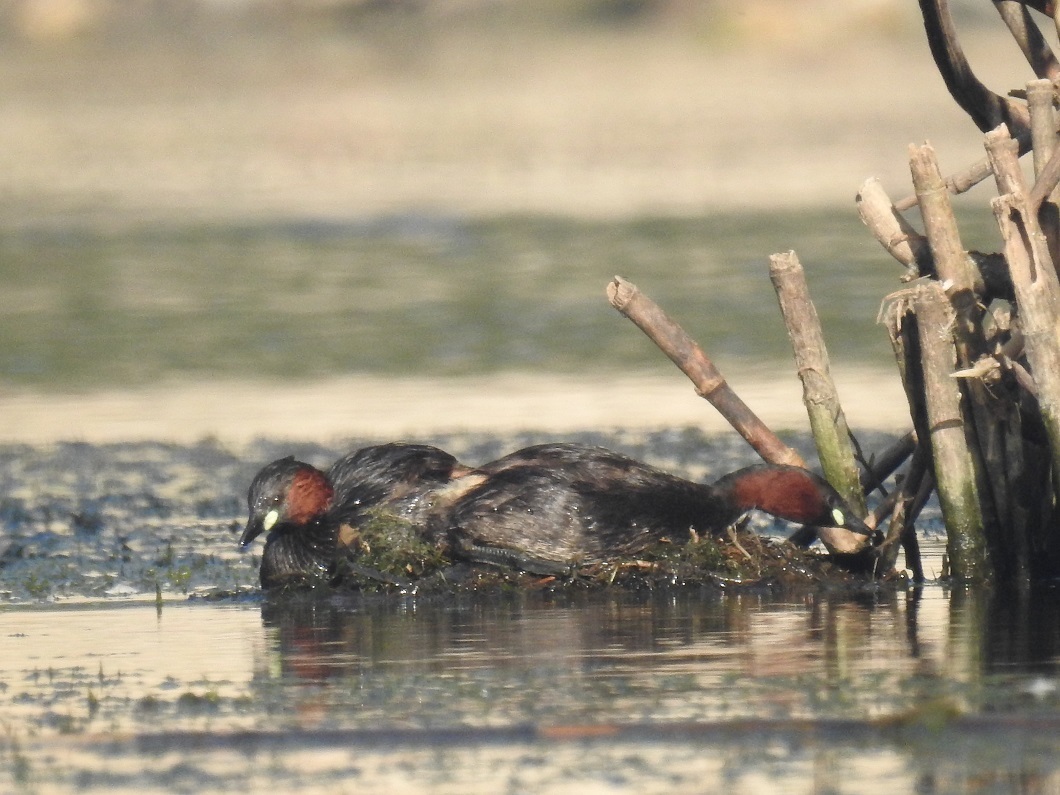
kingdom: Animalia
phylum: Chordata
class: Aves
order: Podicipediformes
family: Podicipedidae
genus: Tachybaptus
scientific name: Tachybaptus ruficollis
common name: Little grebe
